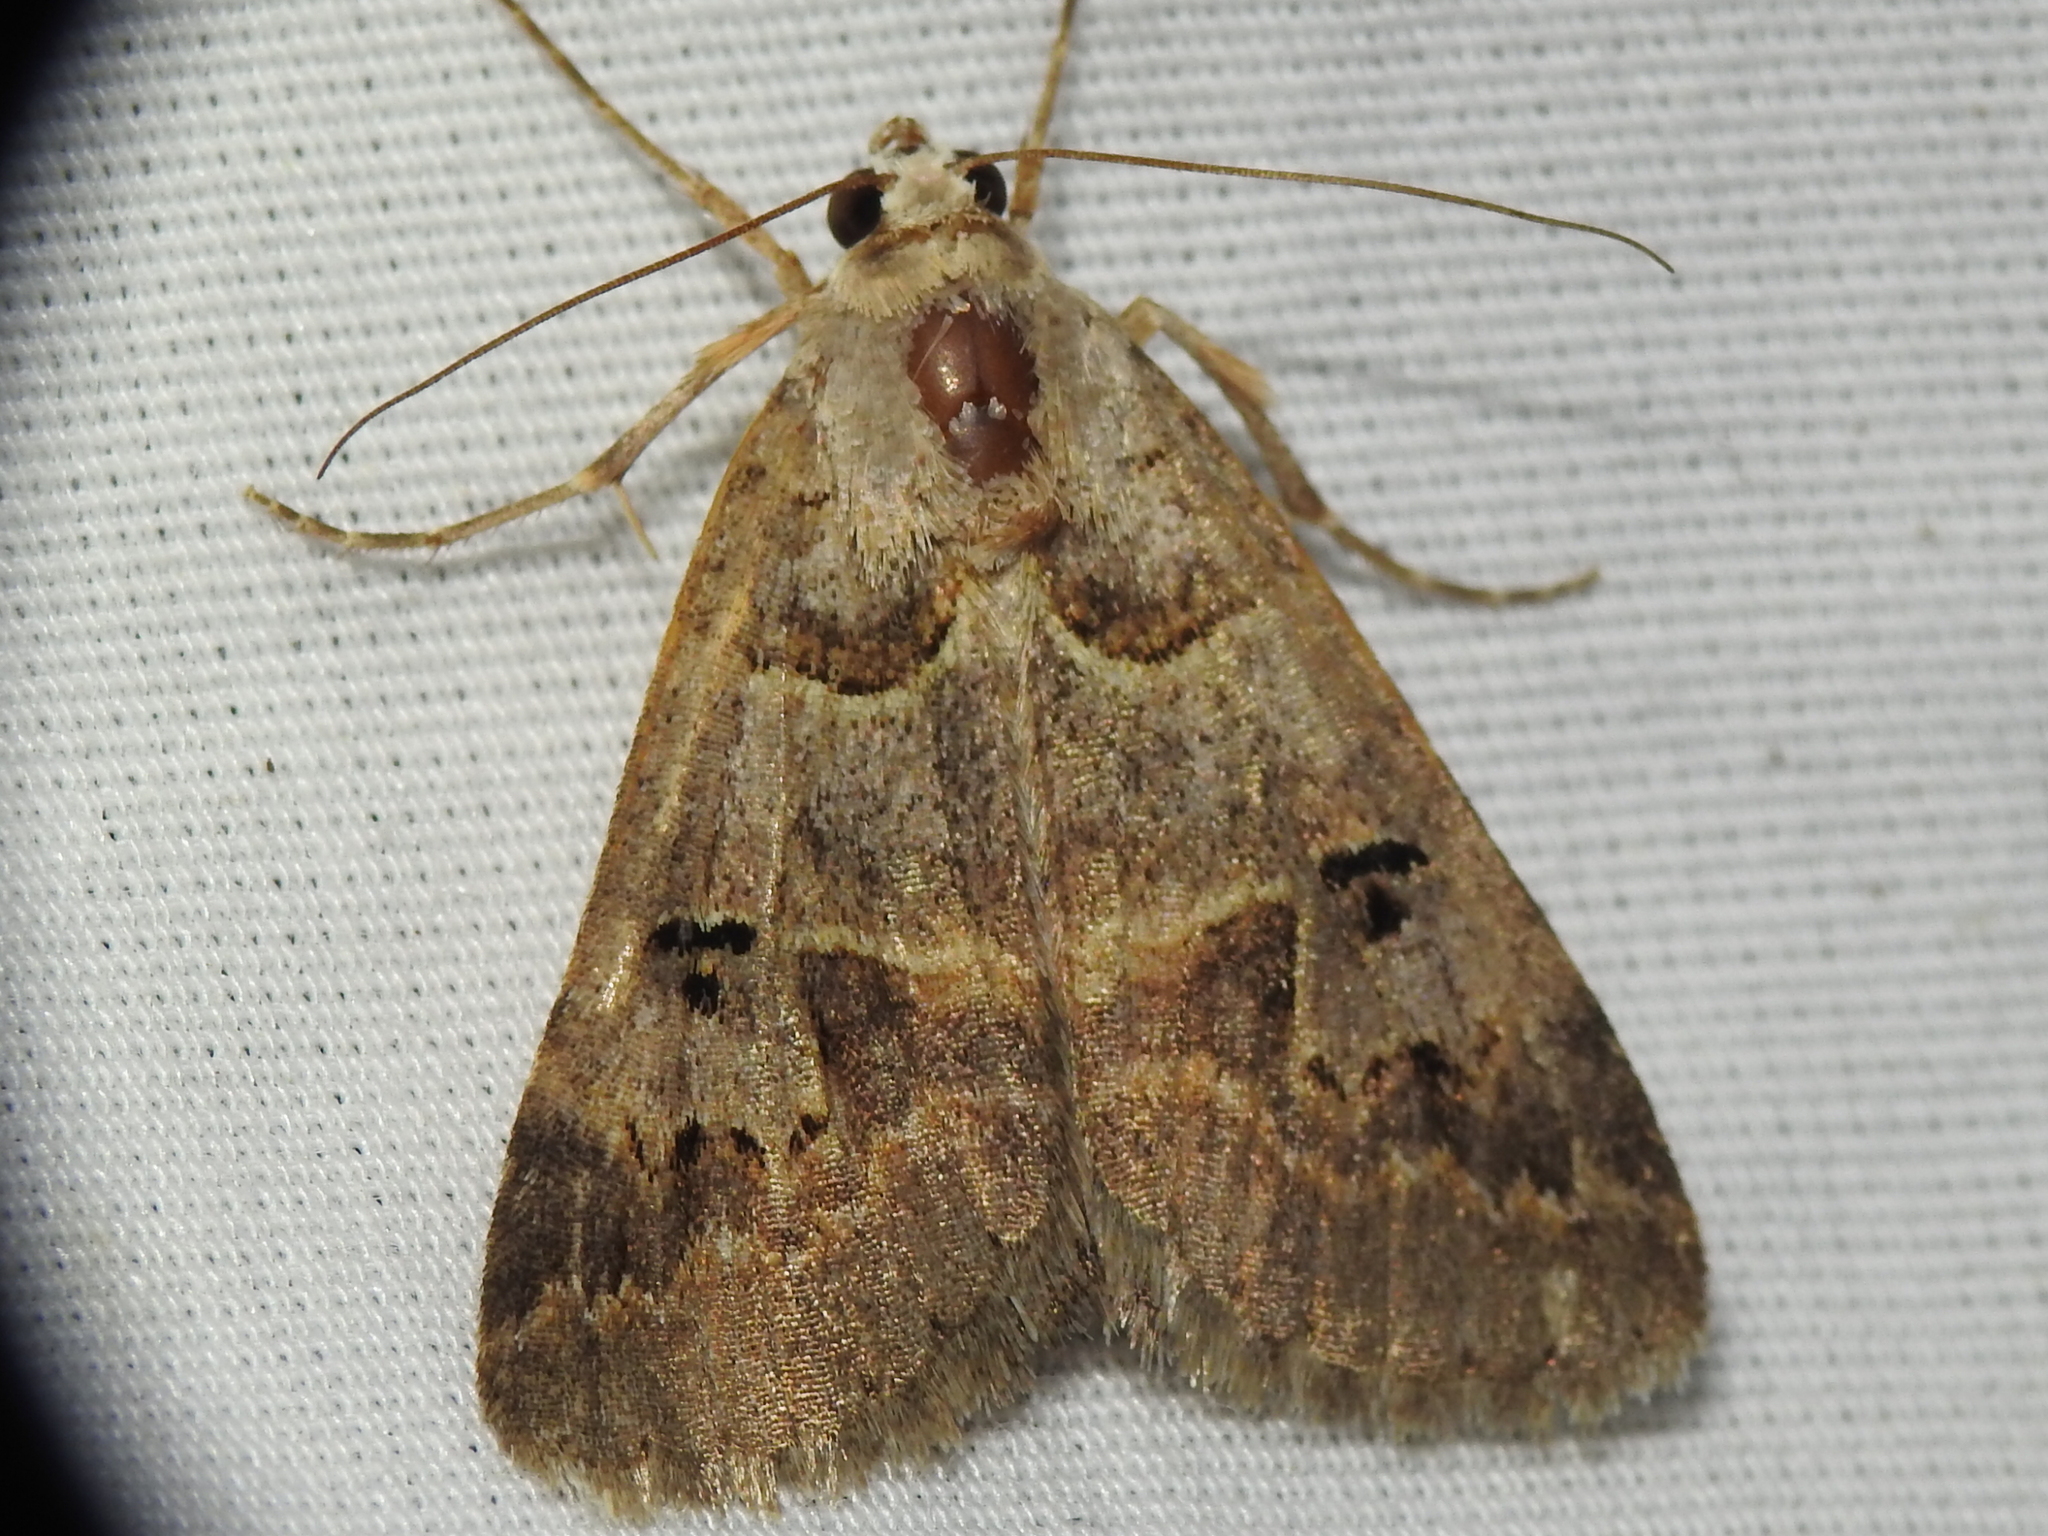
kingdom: Animalia
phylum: Arthropoda
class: Insecta
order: Lepidoptera
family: Erebidae
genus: Drasteria
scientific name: Drasteria ingeniculata
